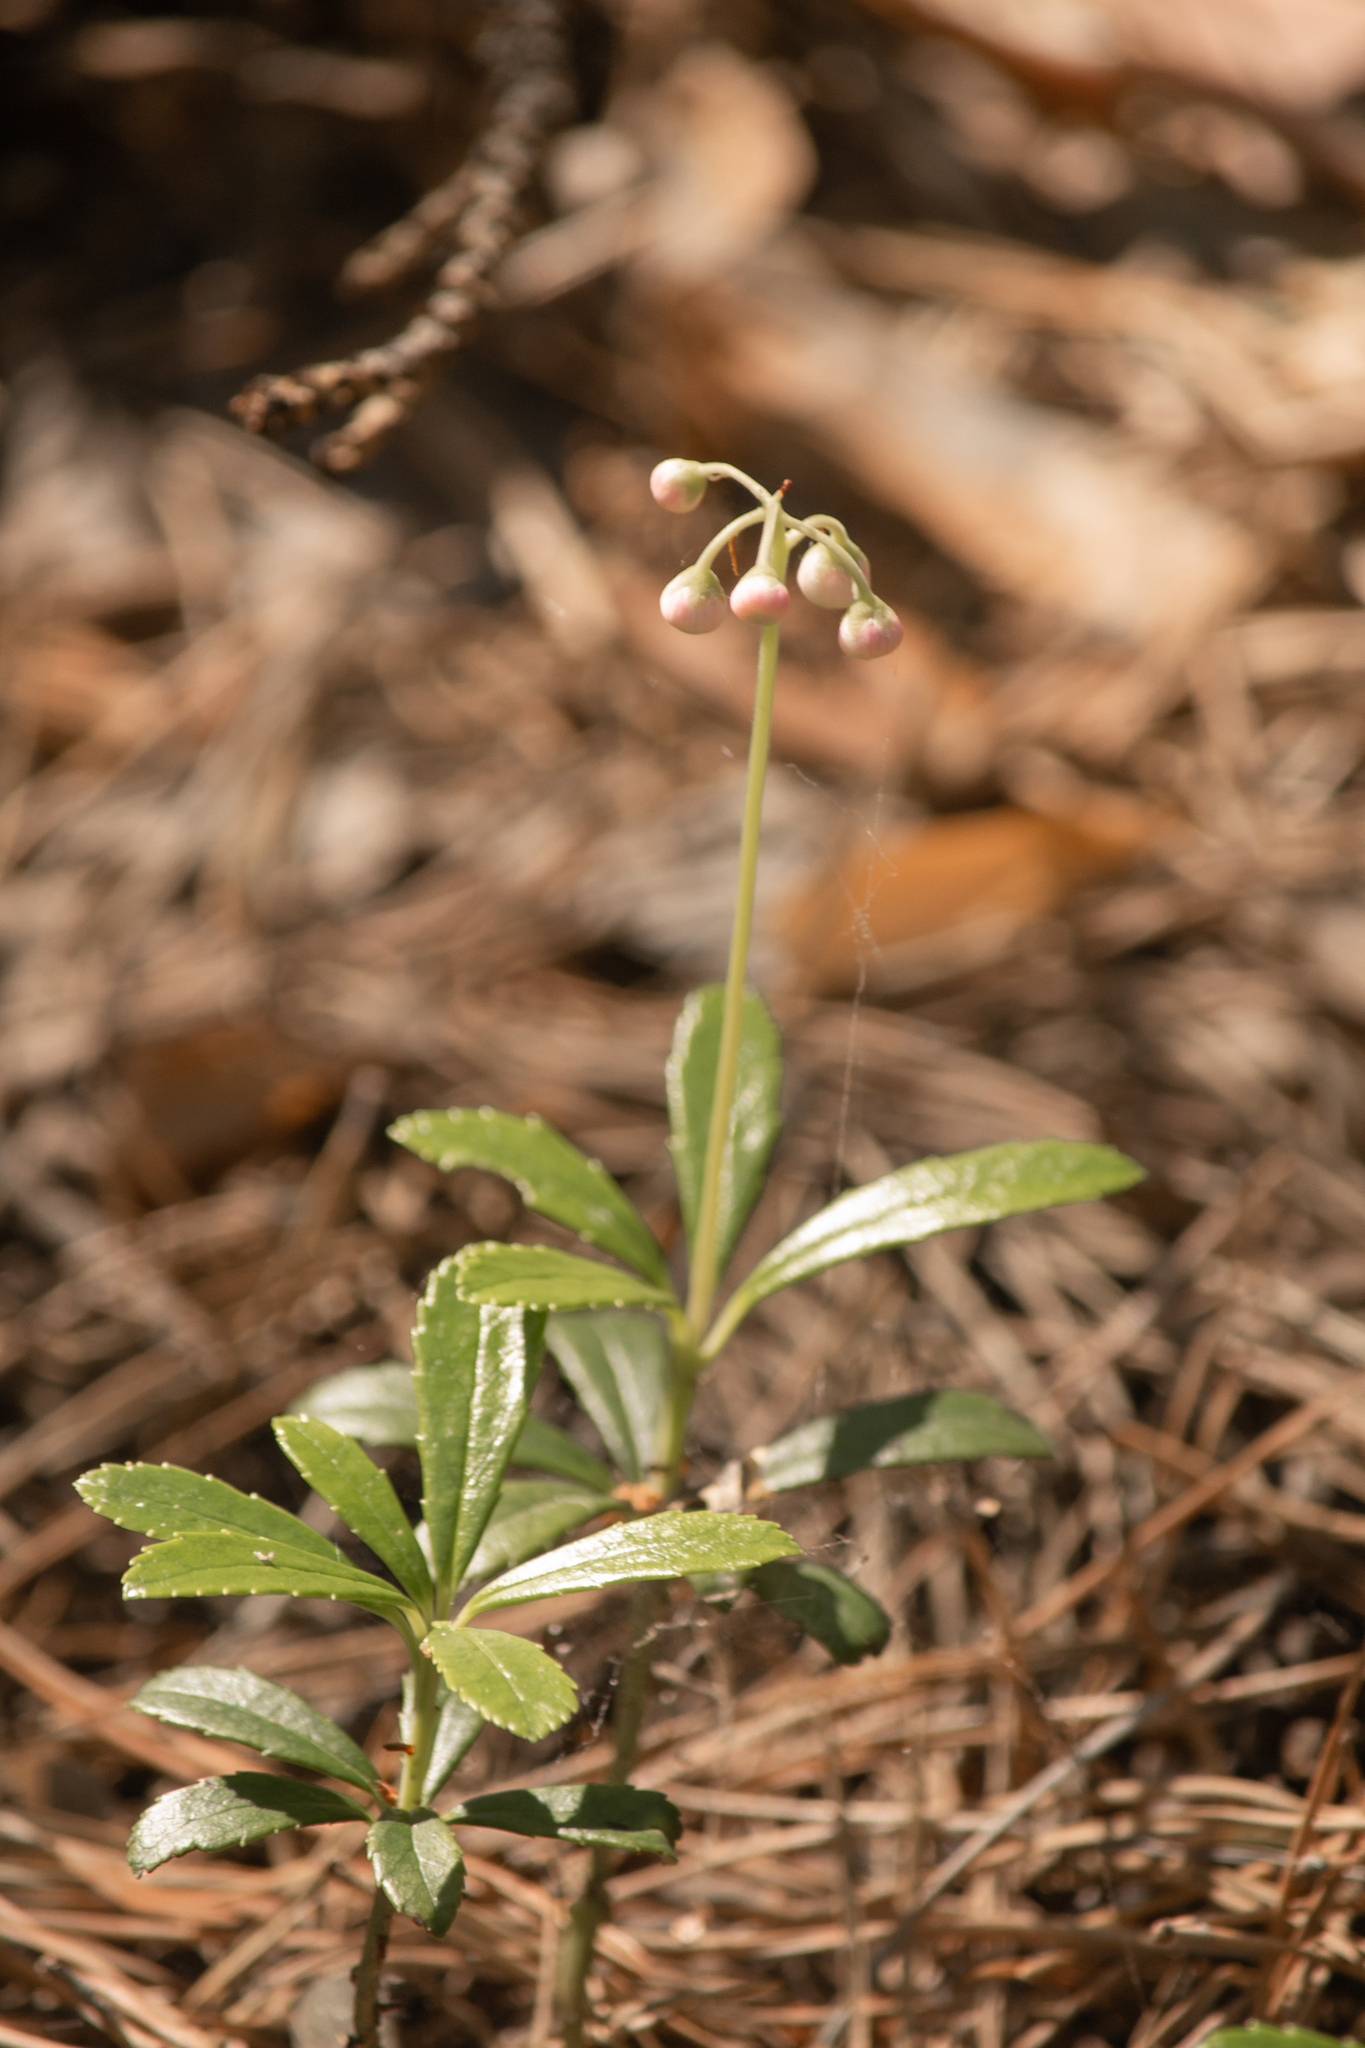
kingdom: Plantae
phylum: Tracheophyta
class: Magnoliopsida
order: Ericales
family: Ericaceae
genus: Chimaphila
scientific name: Chimaphila umbellata
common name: Pipsissewa
